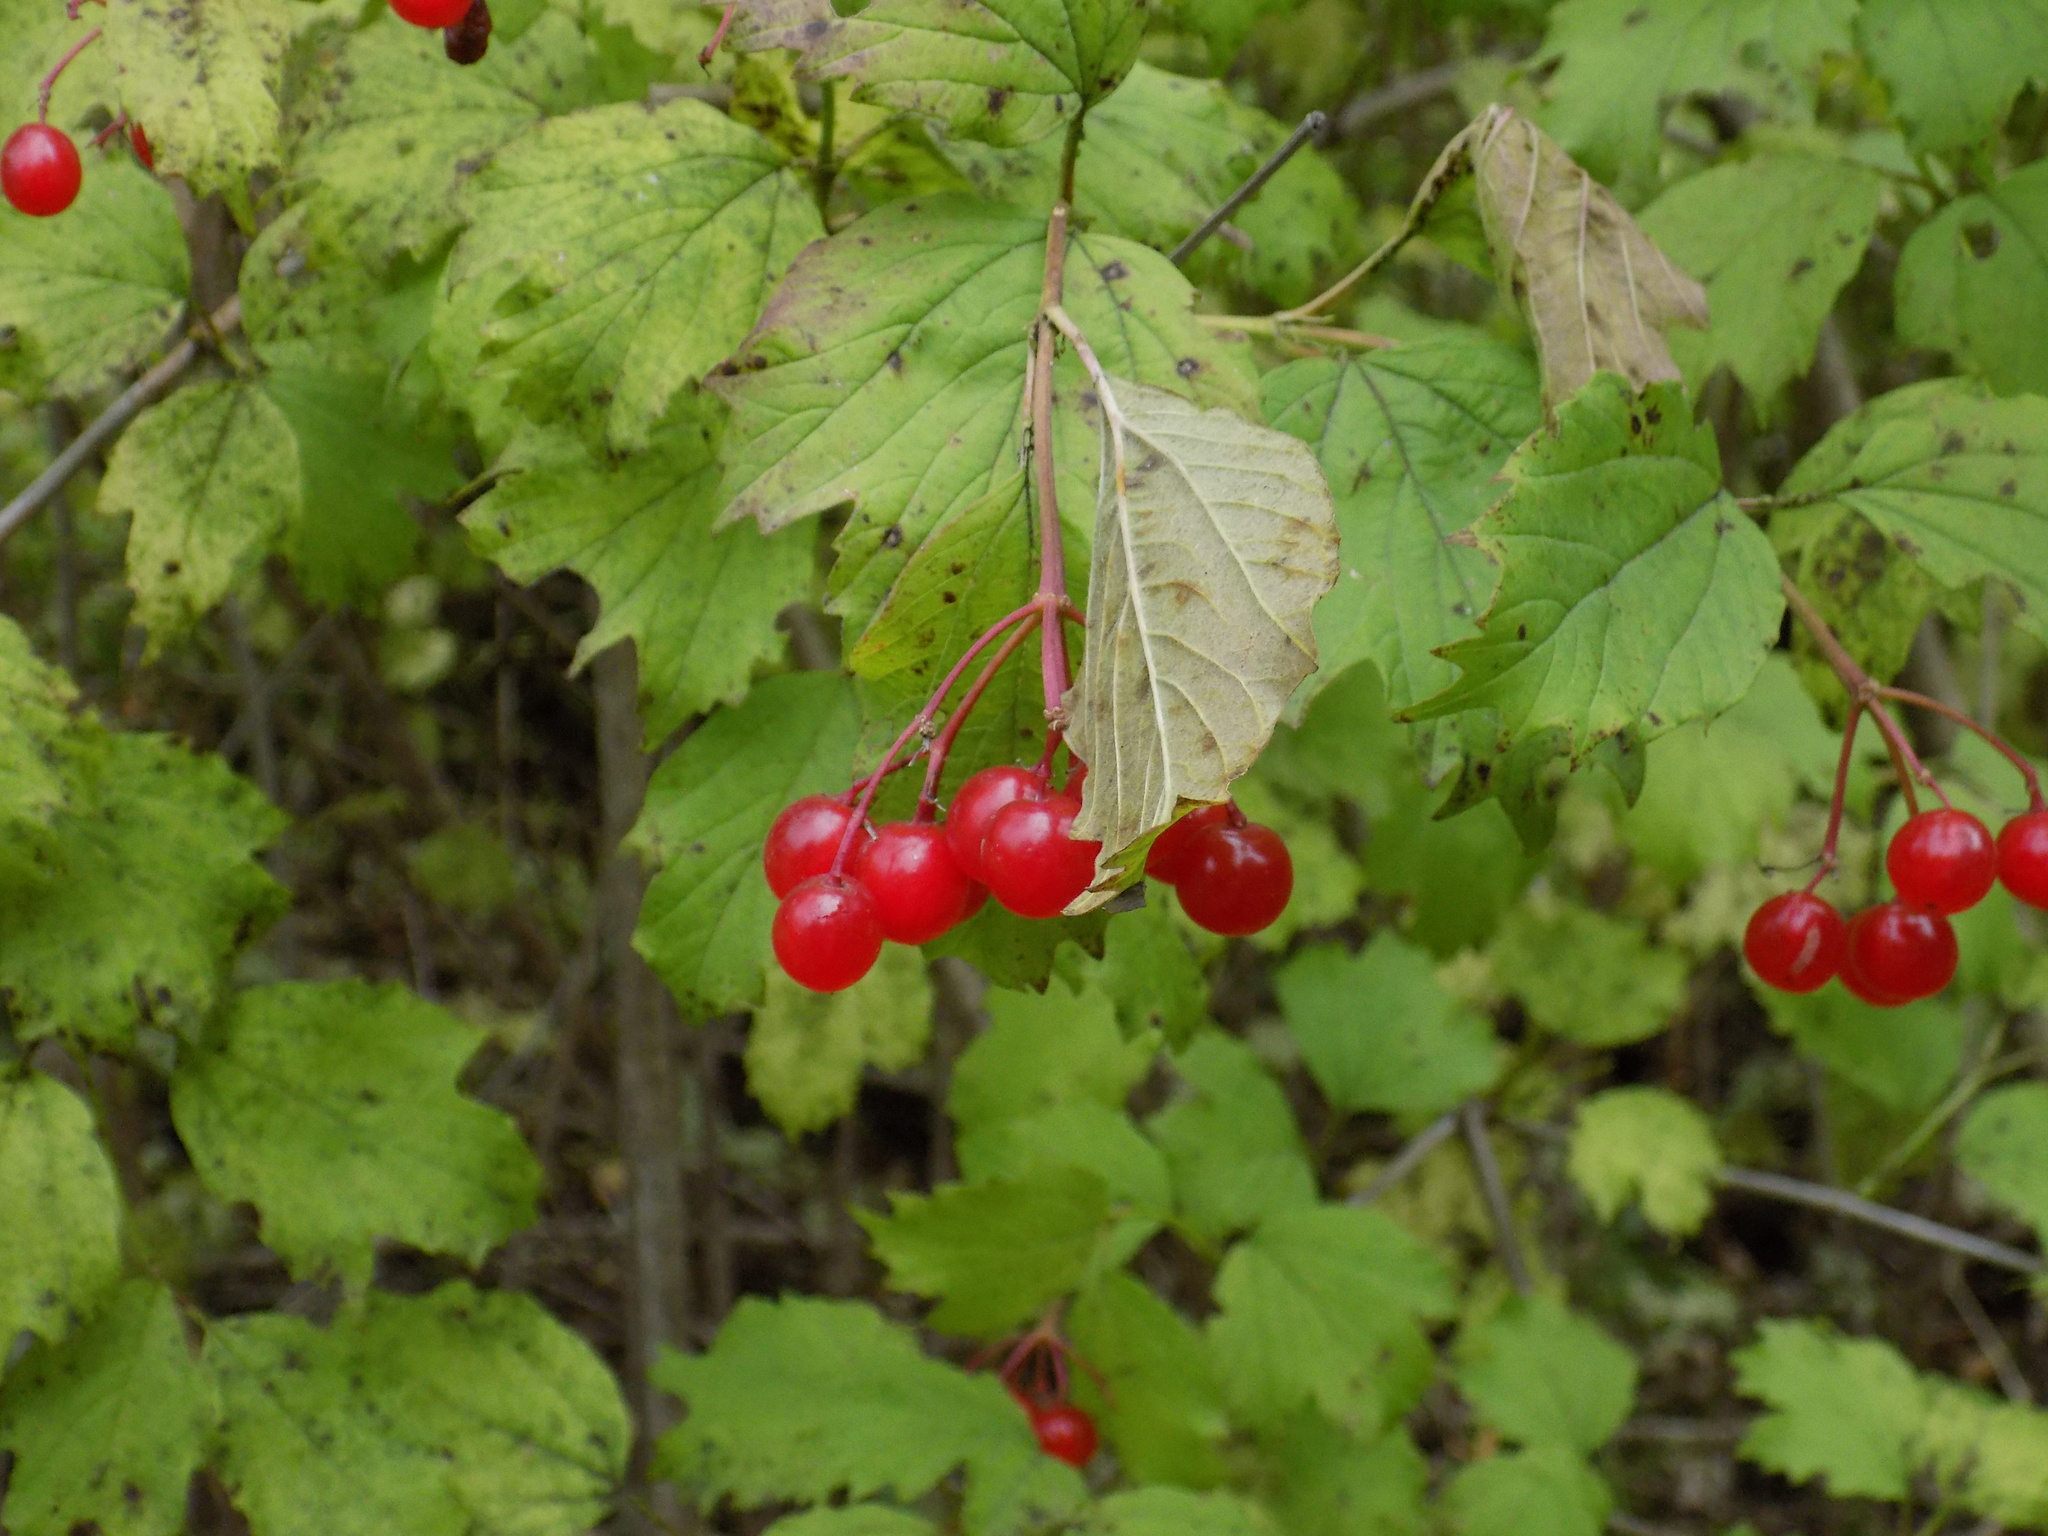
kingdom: Plantae
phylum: Tracheophyta
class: Magnoliopsida
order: Dipsacales
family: Viburnaceae
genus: Viburnum
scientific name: Viburnum opulus
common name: Guelder-rose
